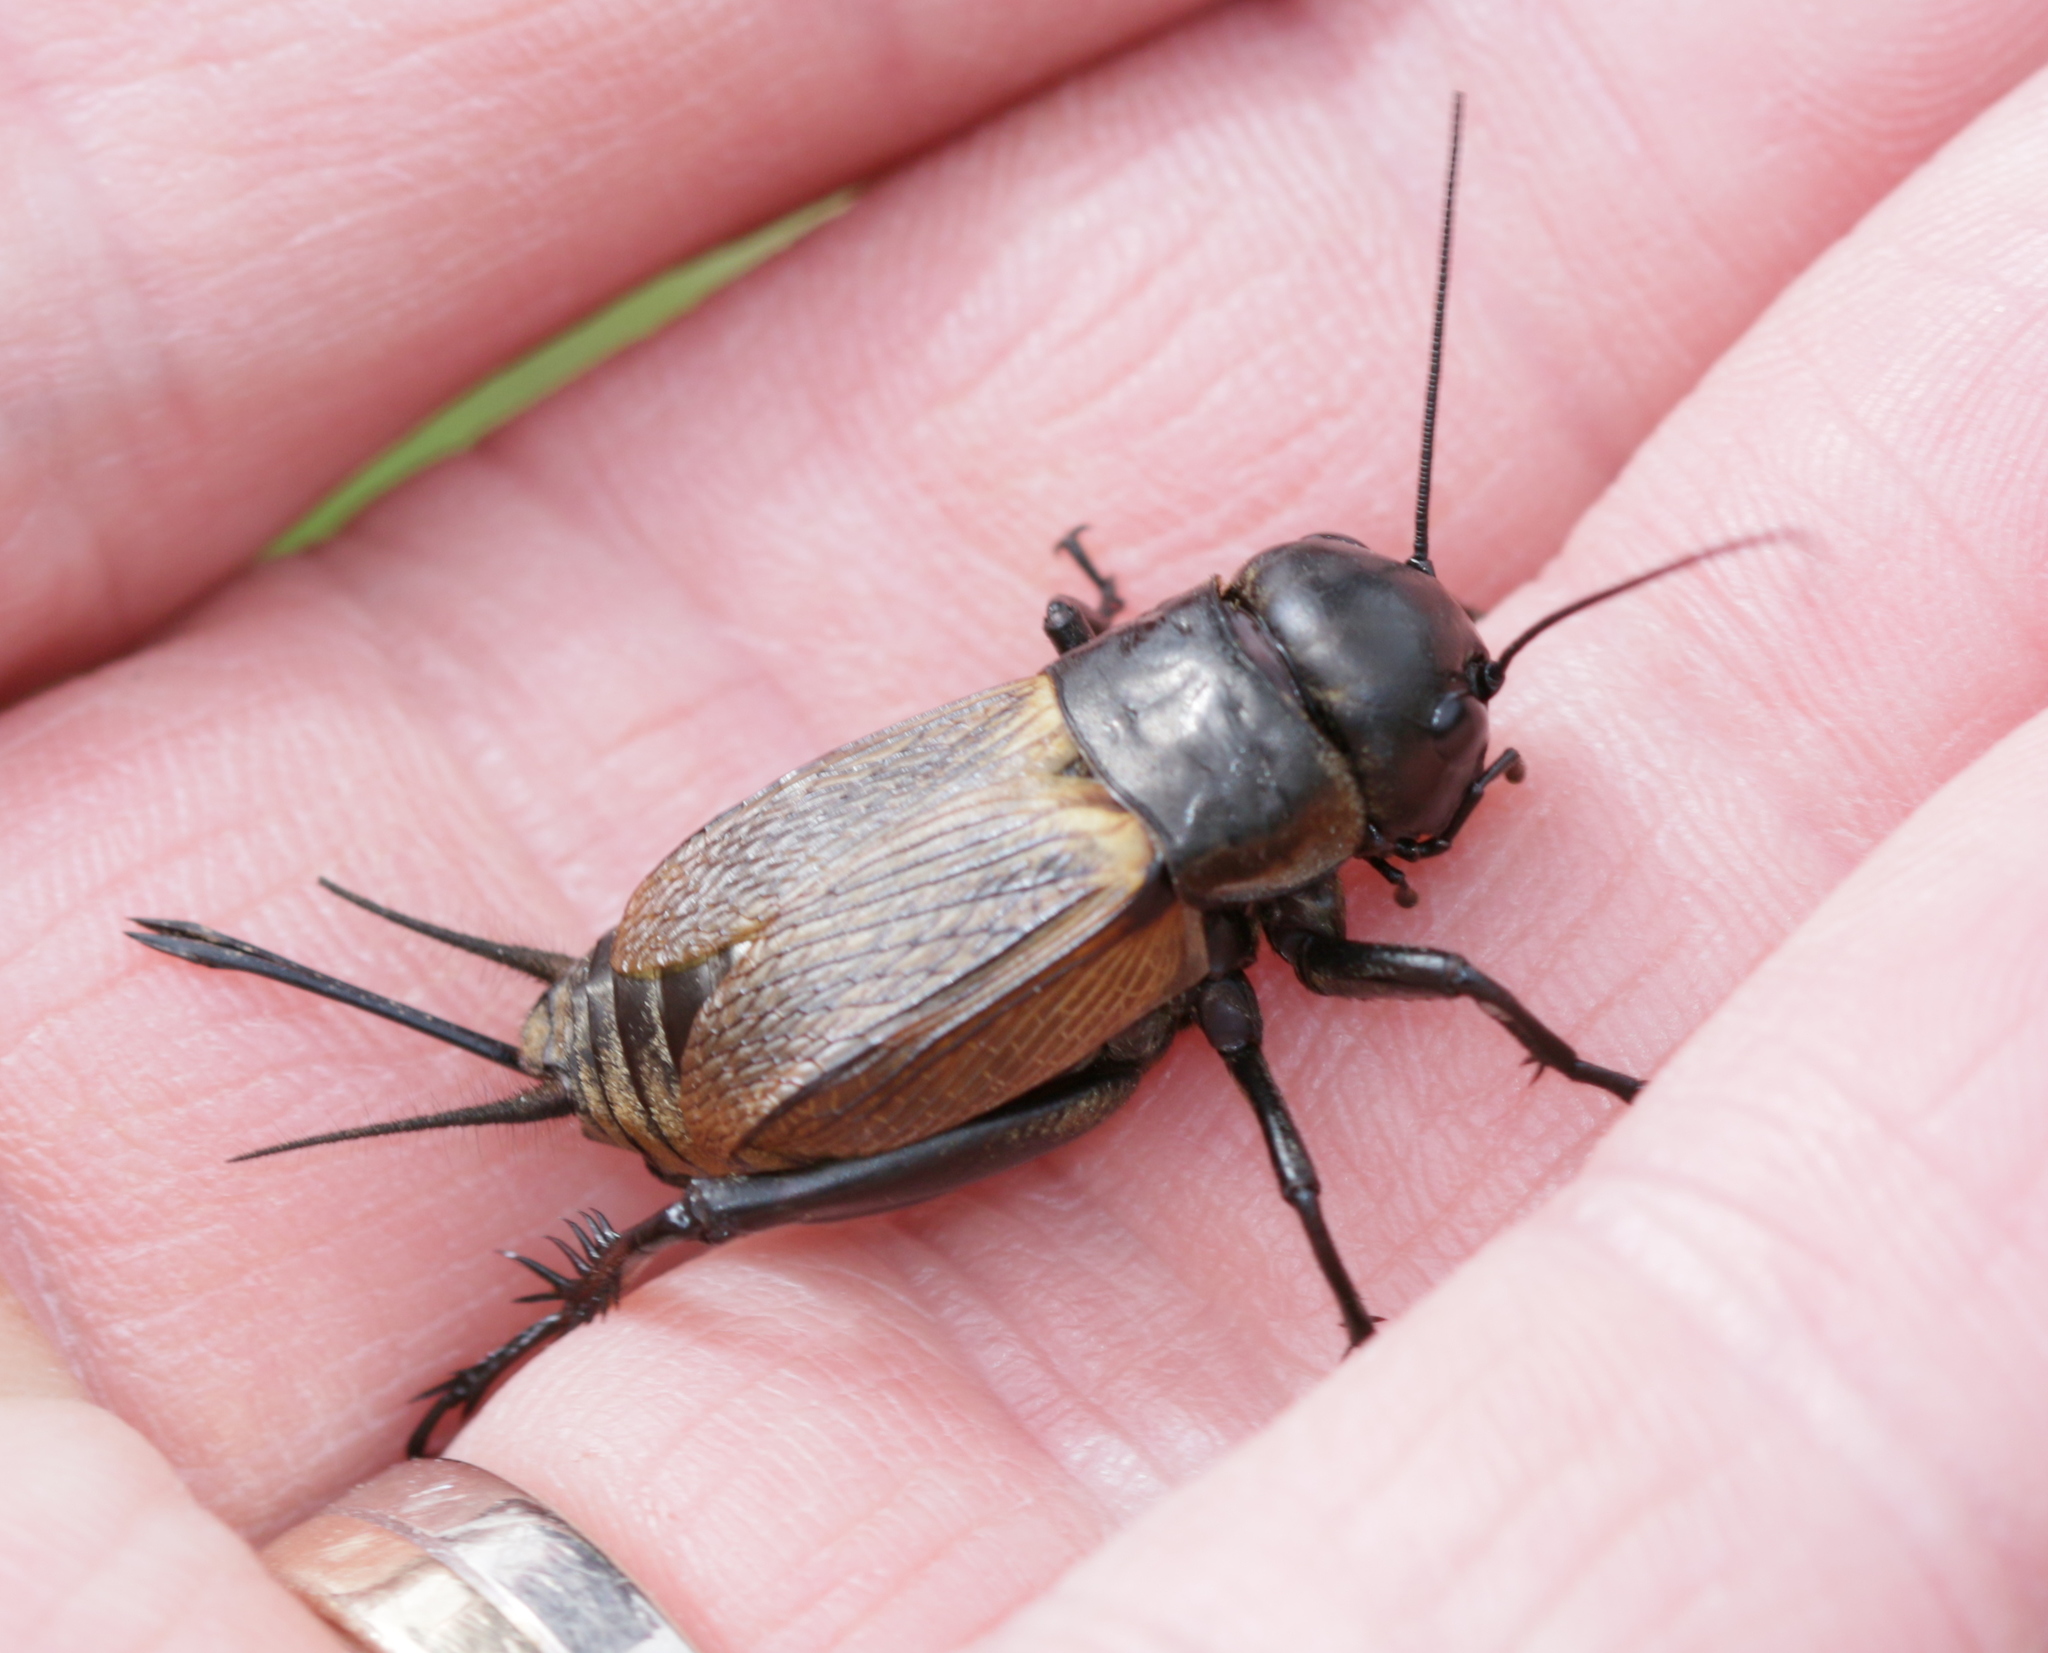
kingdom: Animalia
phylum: Arthropoda
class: Insecta
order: Orthoptera
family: Gryllidae
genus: Gryllus
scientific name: Gryllus campestris
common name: Field cricket
